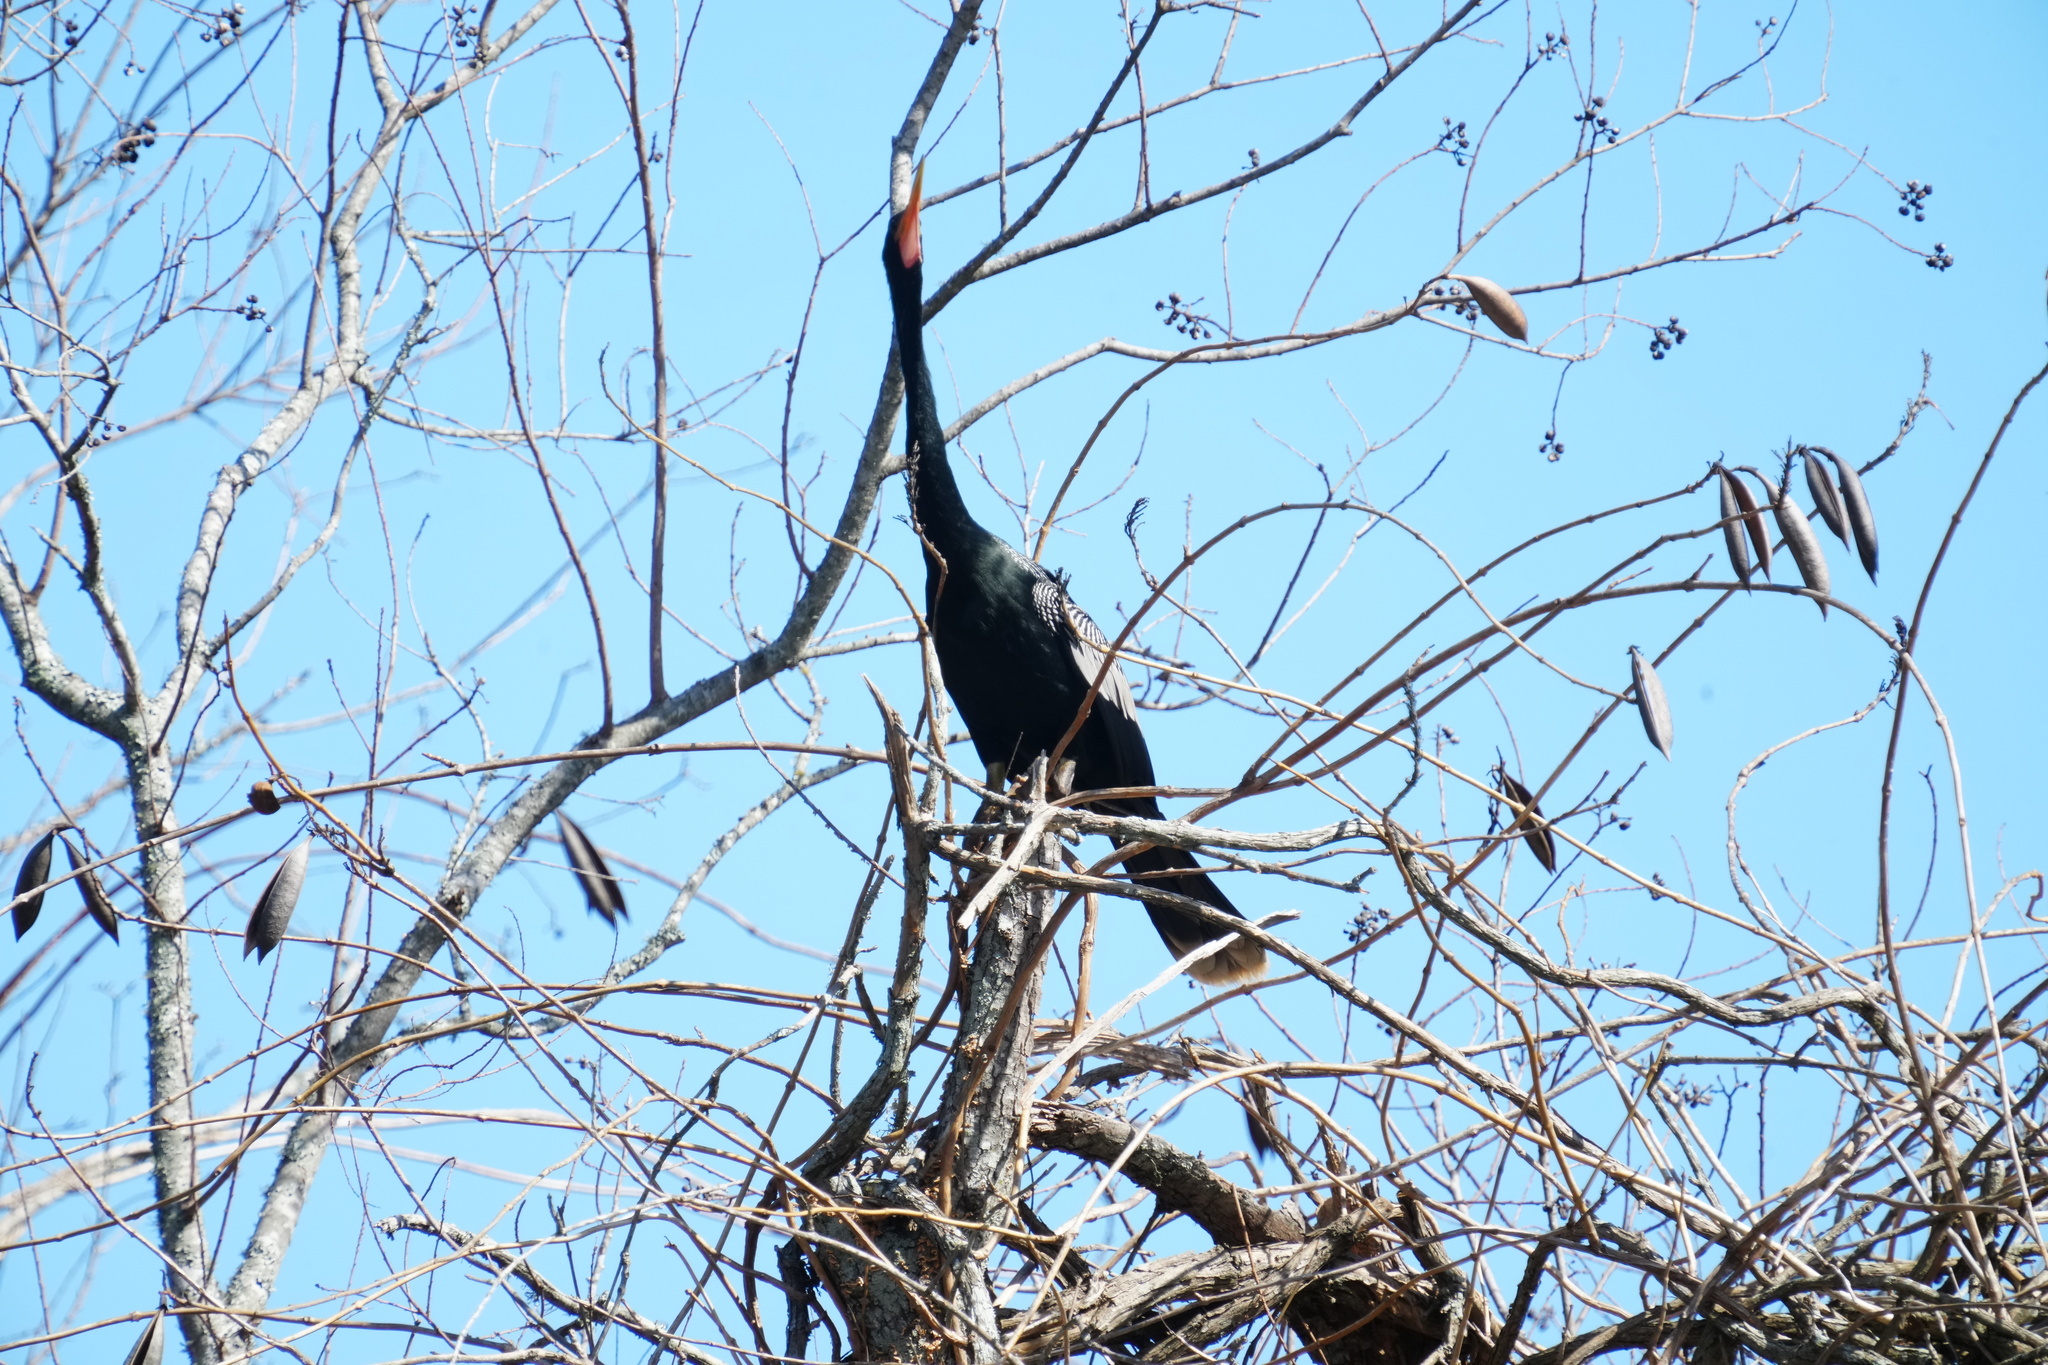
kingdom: Animalia
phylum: Chordata
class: Aves
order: Suliformes
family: Anhingidae
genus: Anhinga
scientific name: Anhinga anhinga
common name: Anhinga
